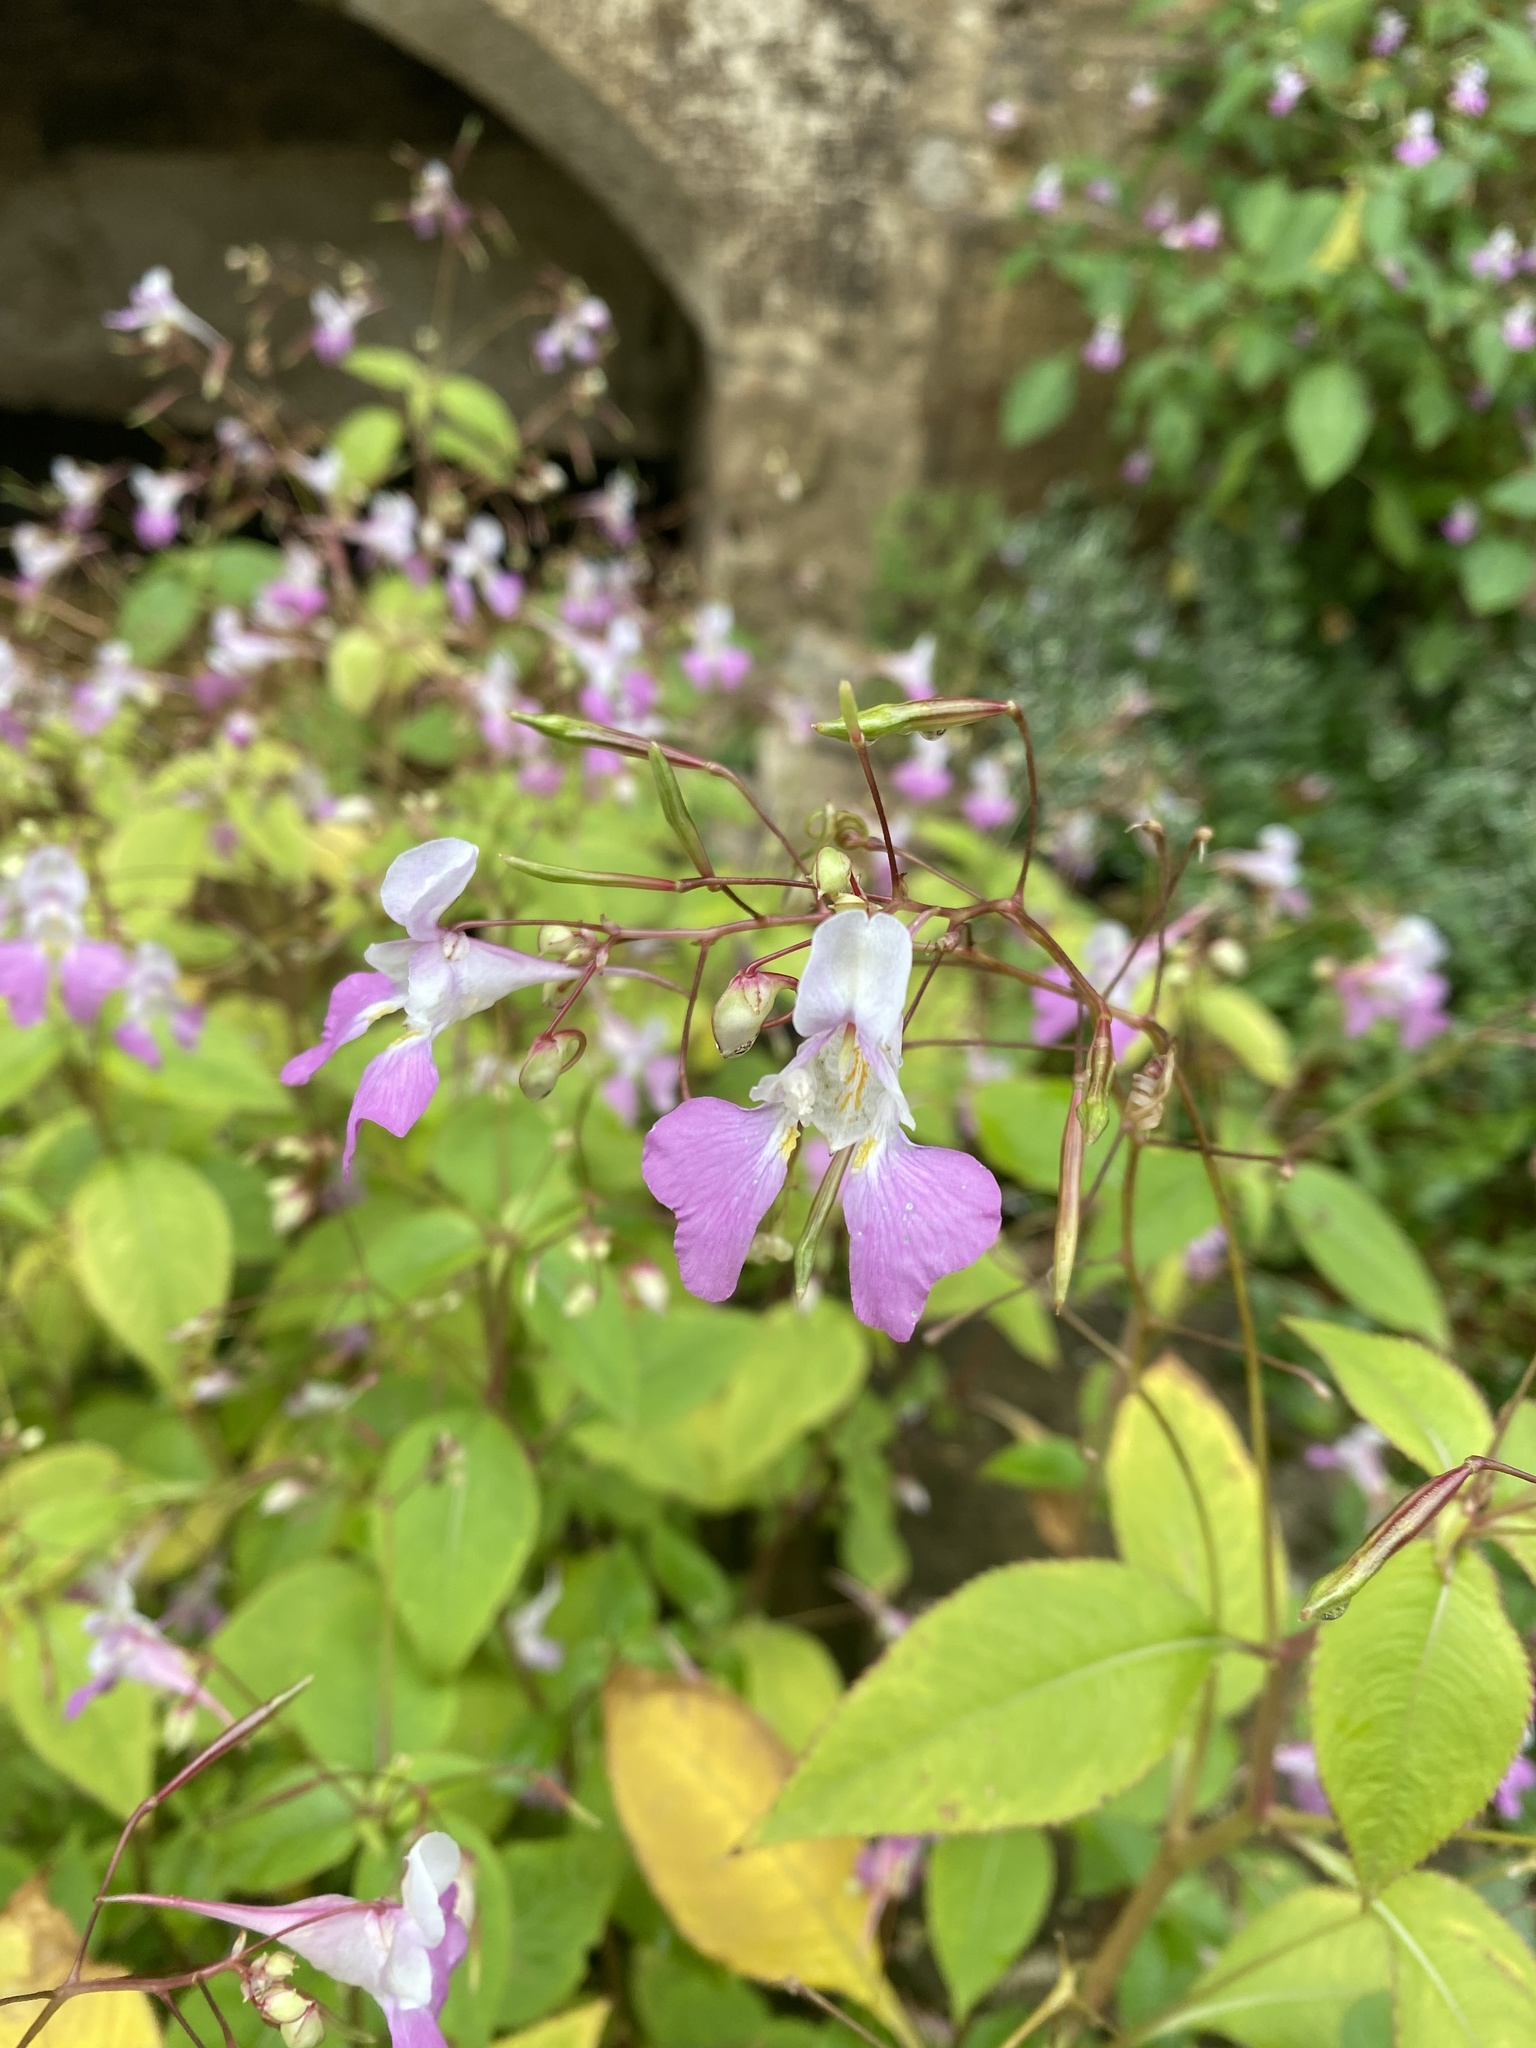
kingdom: Plantae
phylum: Tracheophyta
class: Magnoliopsida
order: Ericales
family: Balsaminaceae
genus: Impatiens
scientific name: Impatiens balfourii
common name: Balfour's touch-me-not
